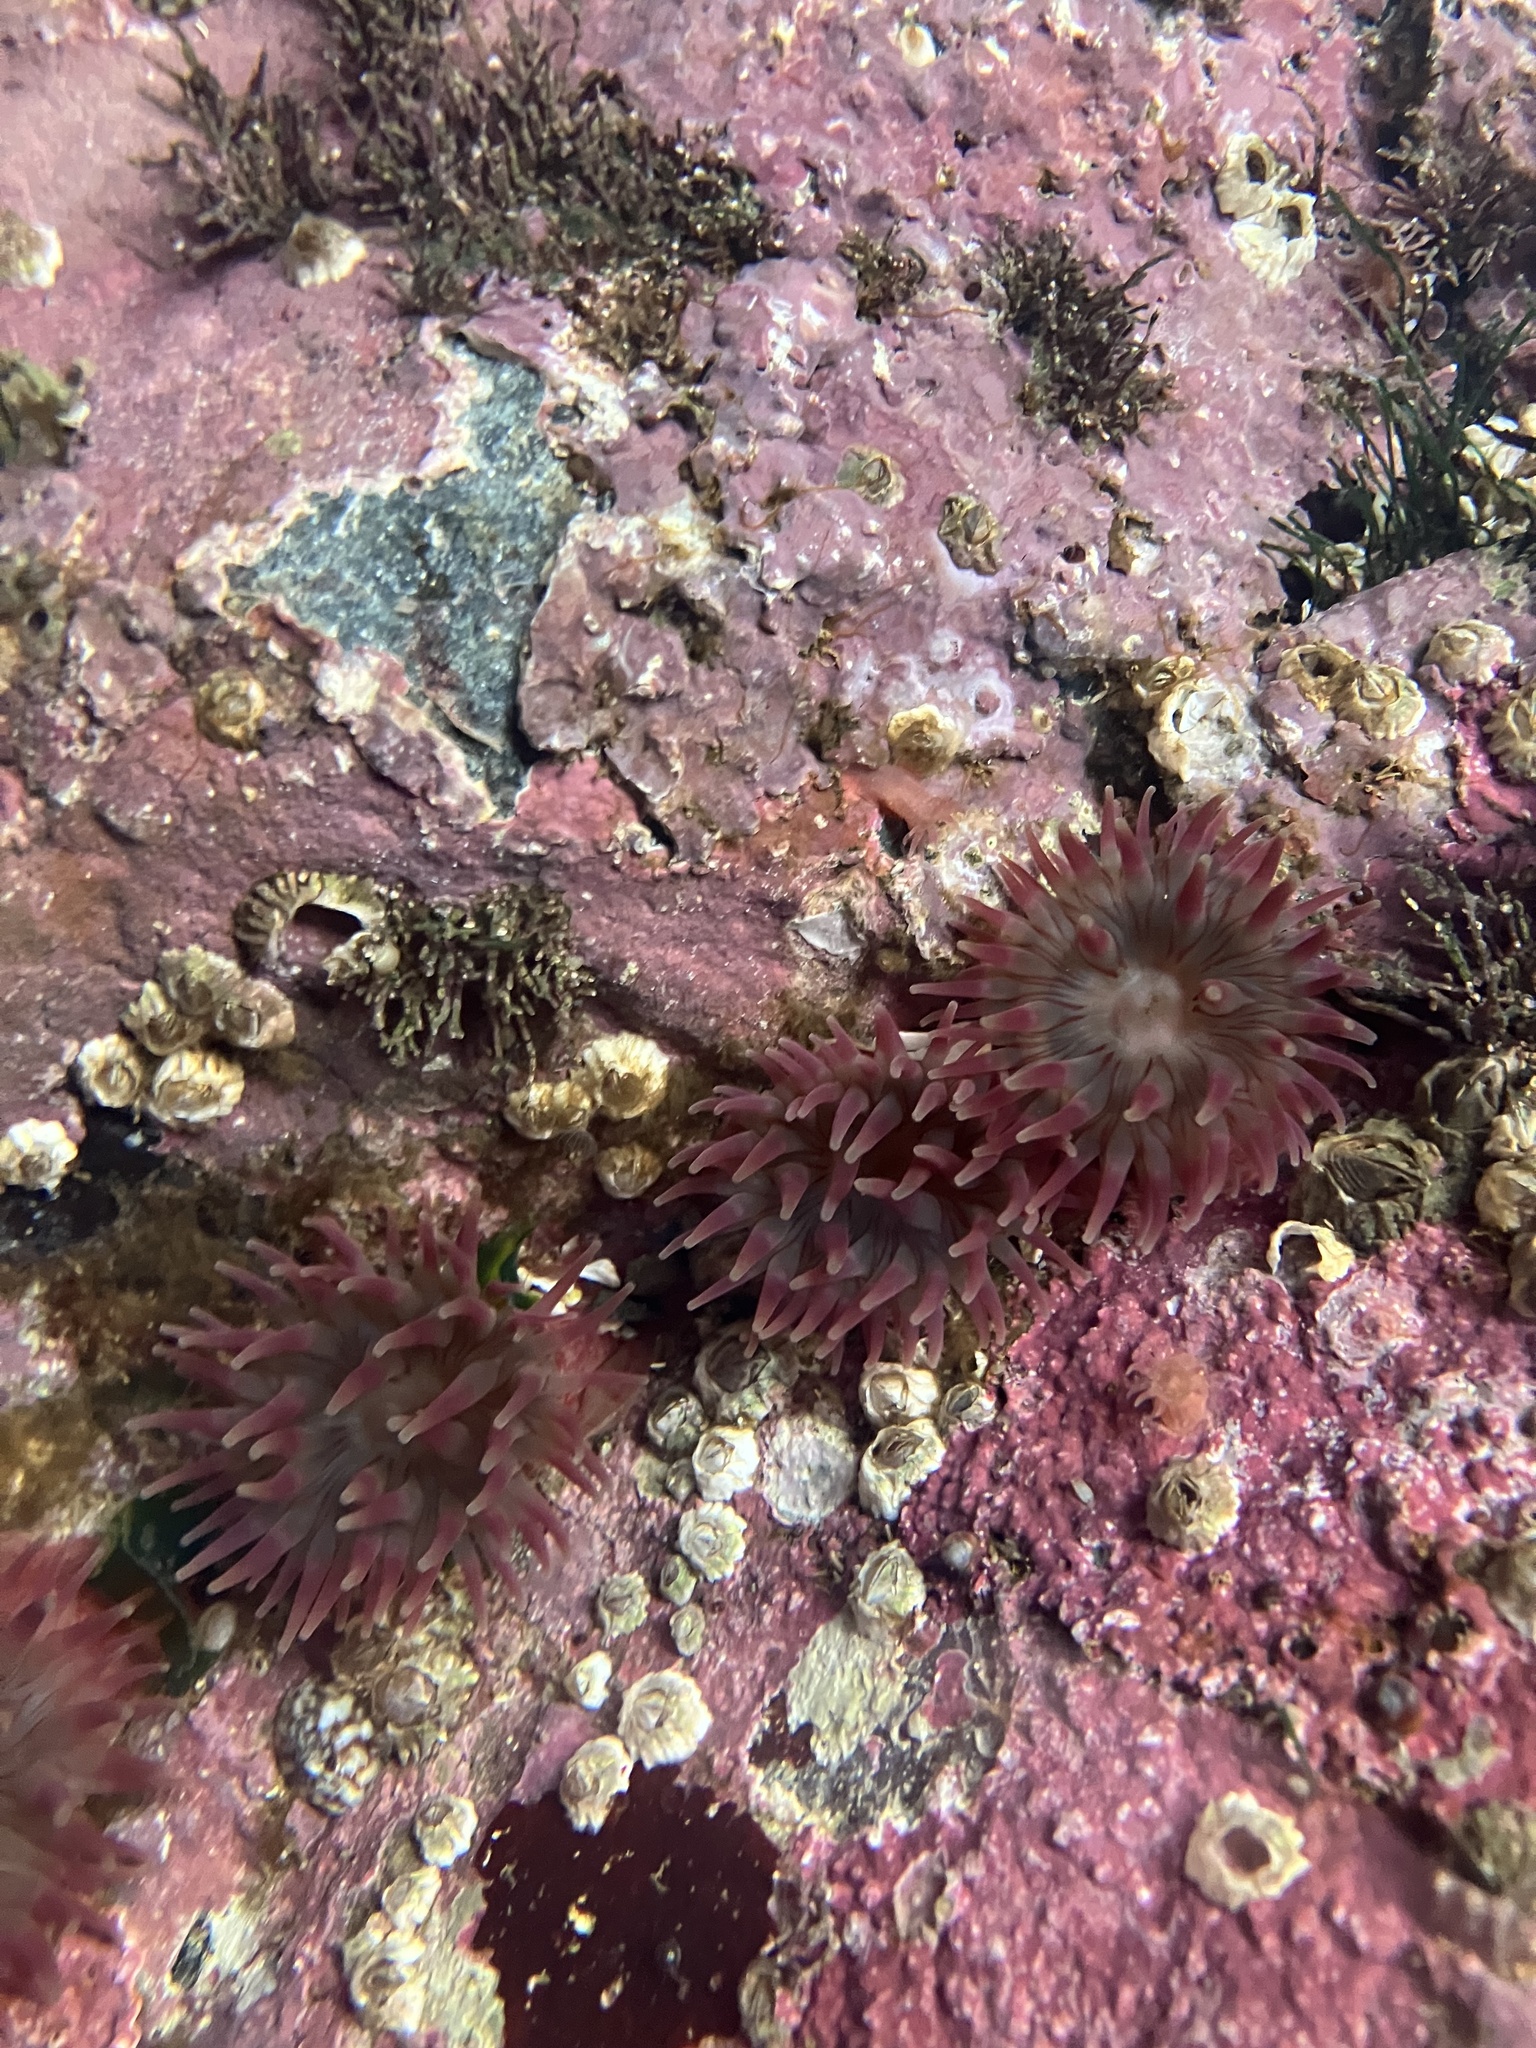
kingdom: Animalia
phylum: Cnidaria
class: Anthozoa
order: Actiniaria
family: Actiniidae
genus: Urticina
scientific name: Urticina crassicornis
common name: Mottled anemone
